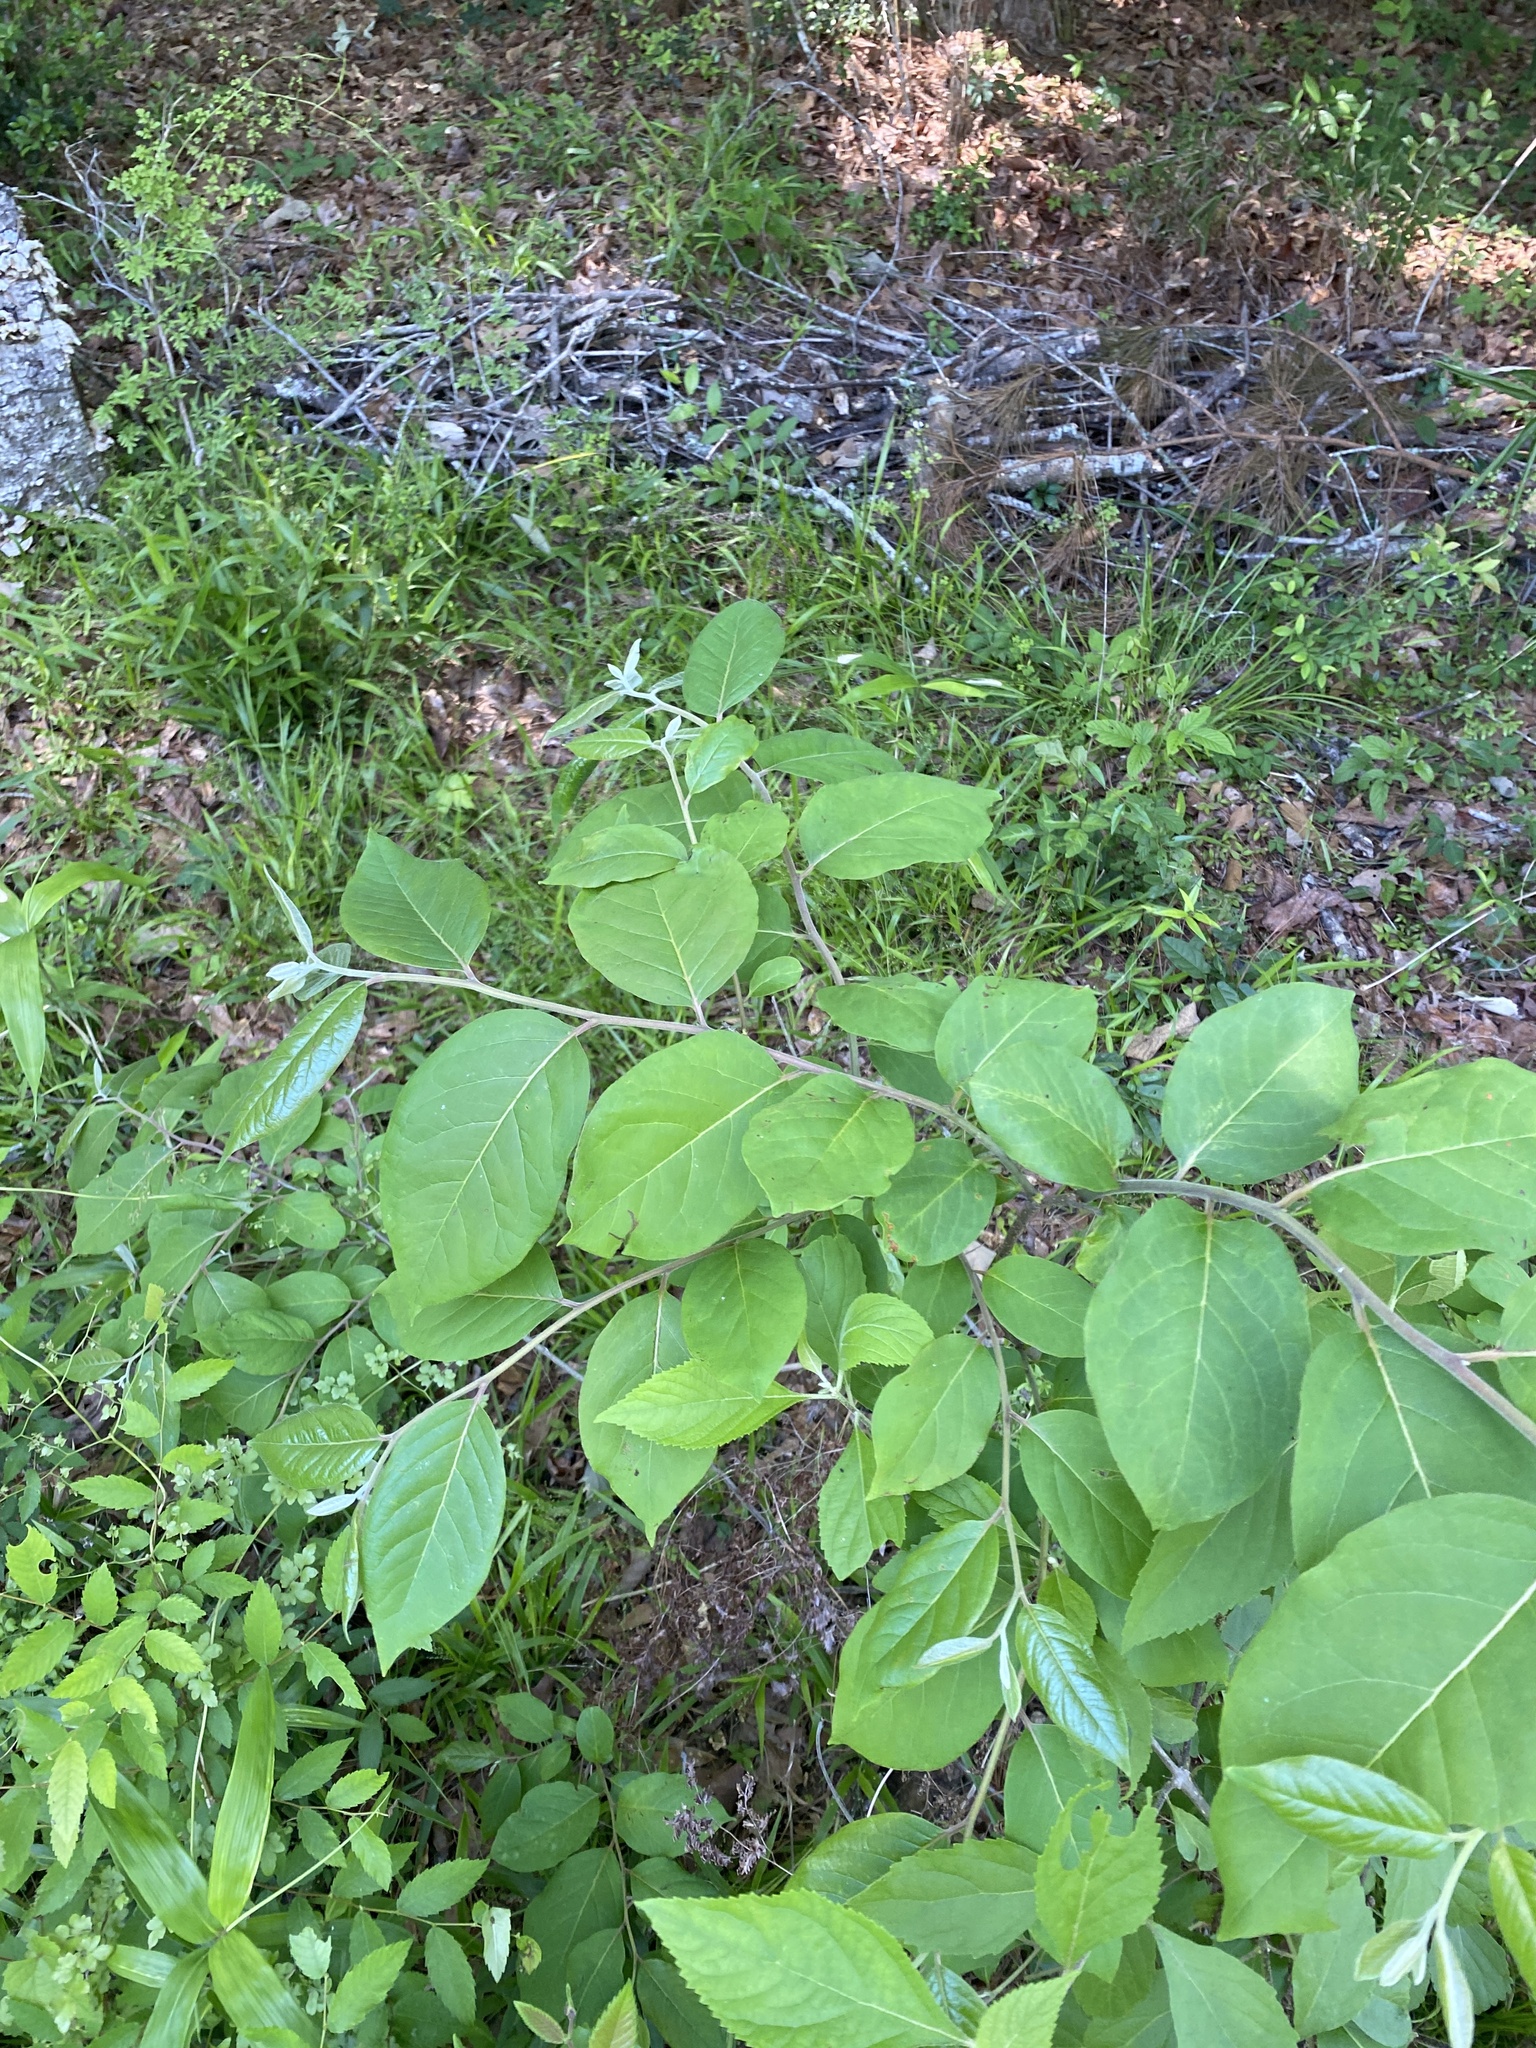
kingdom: Plantae
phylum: Tracheophyta
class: Magnoliopsida
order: Ericales
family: Ebenaceae
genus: Diospyros
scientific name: Diospyros virginiana
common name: Persimmon
